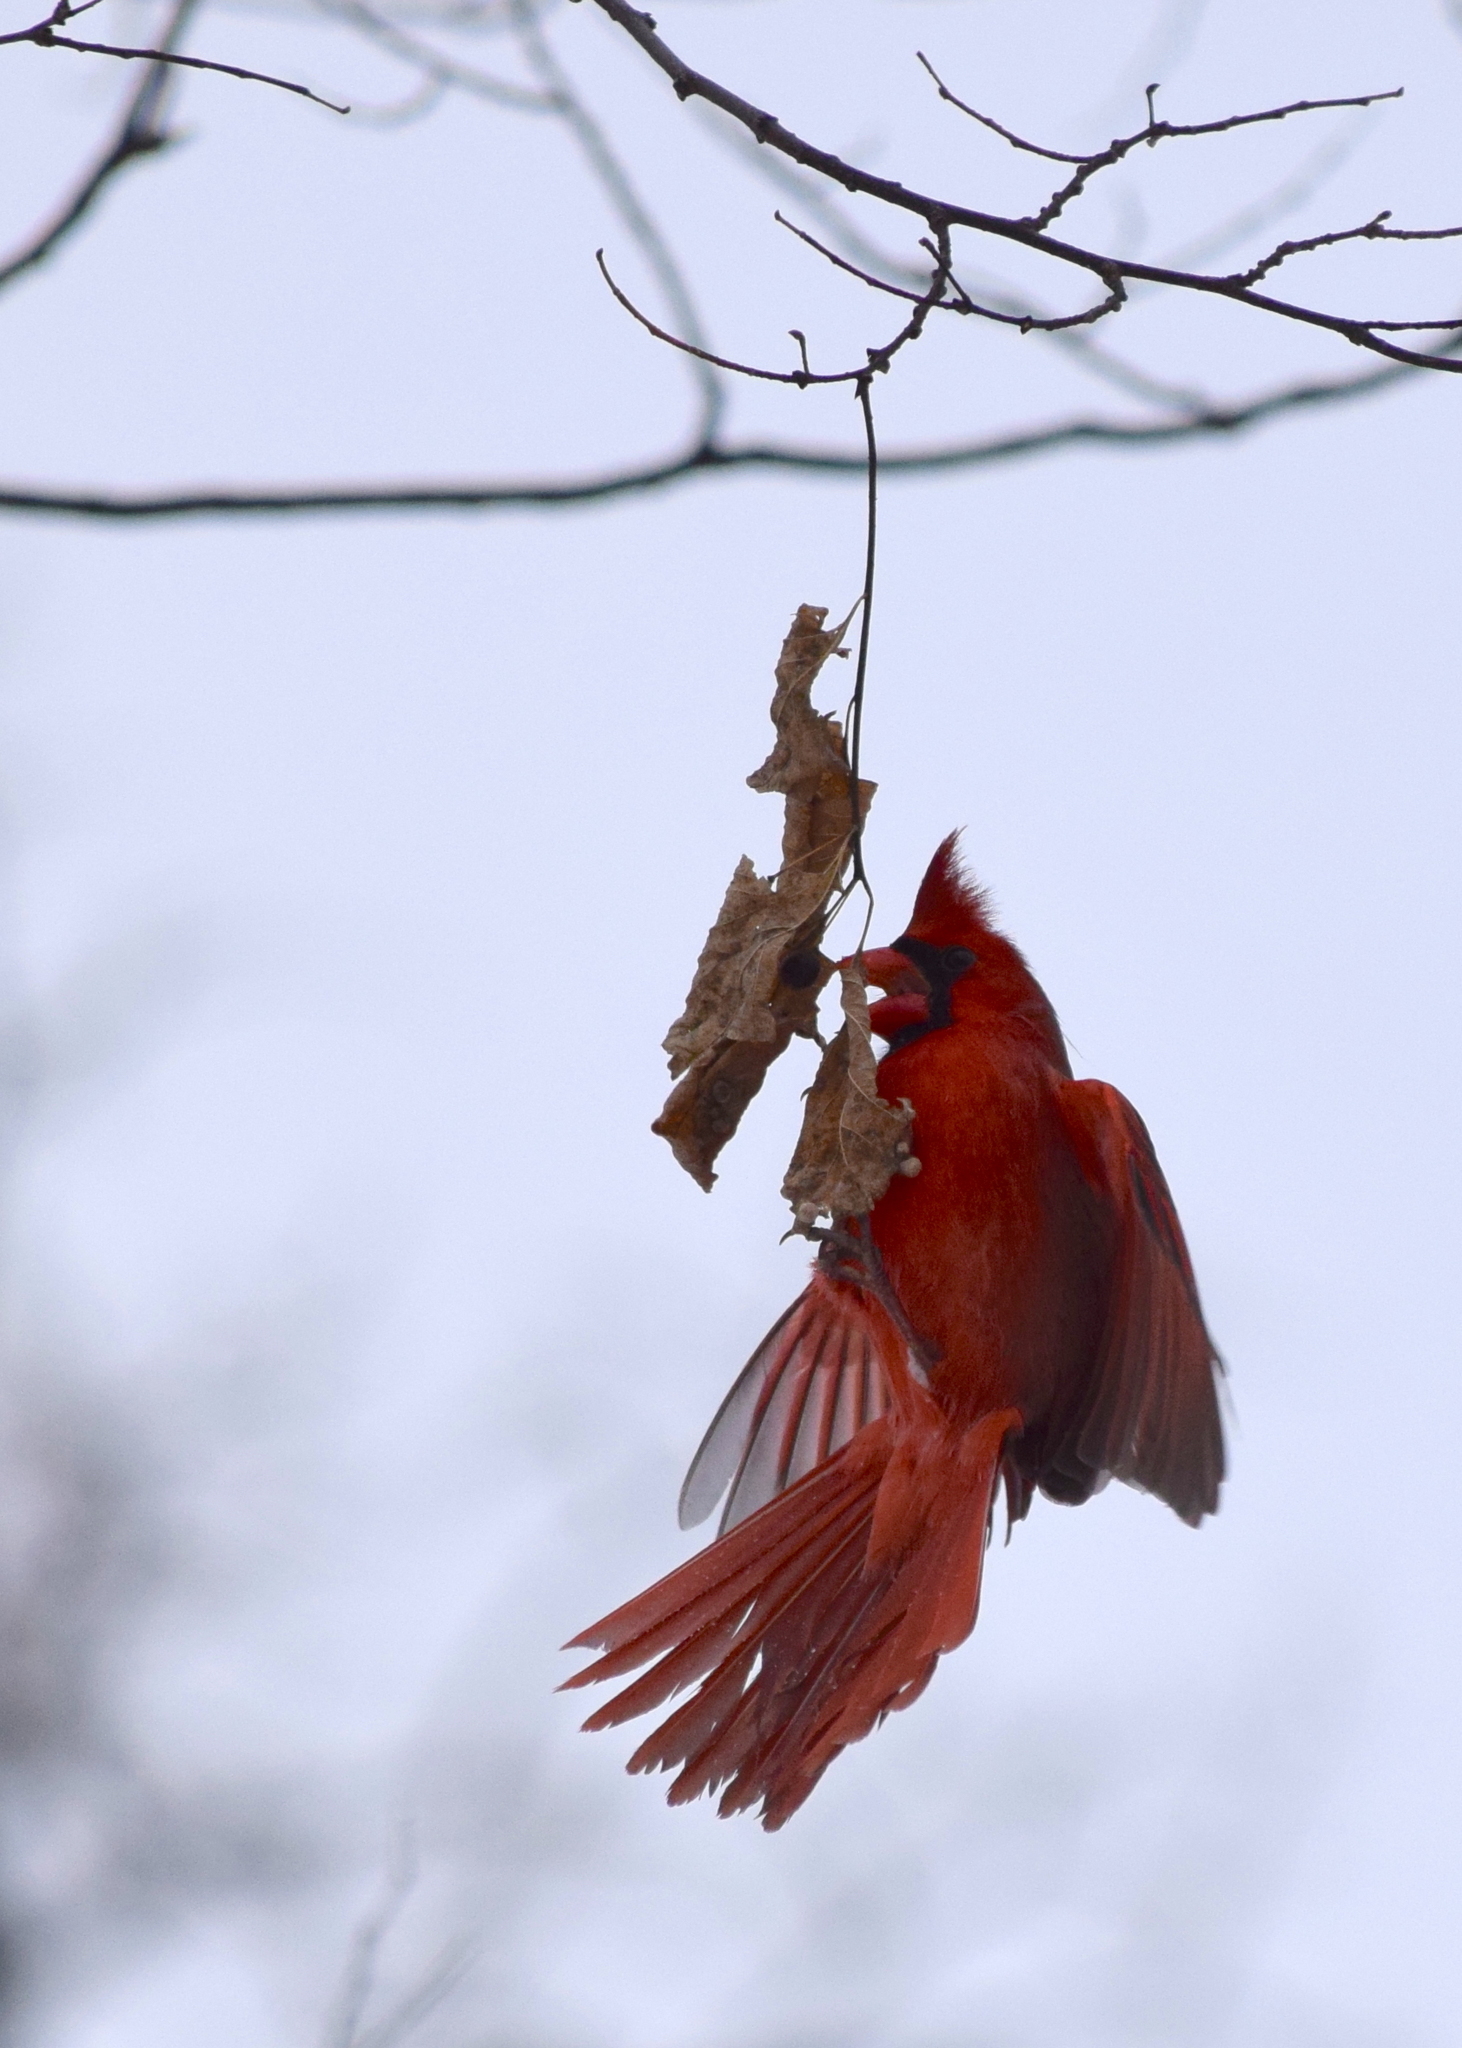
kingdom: Animalia
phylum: Chordata
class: Aves
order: Passeriformes
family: Cardinalidae
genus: Cardinalis
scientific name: Cardinalis cardinalis
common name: Northern cardinal
